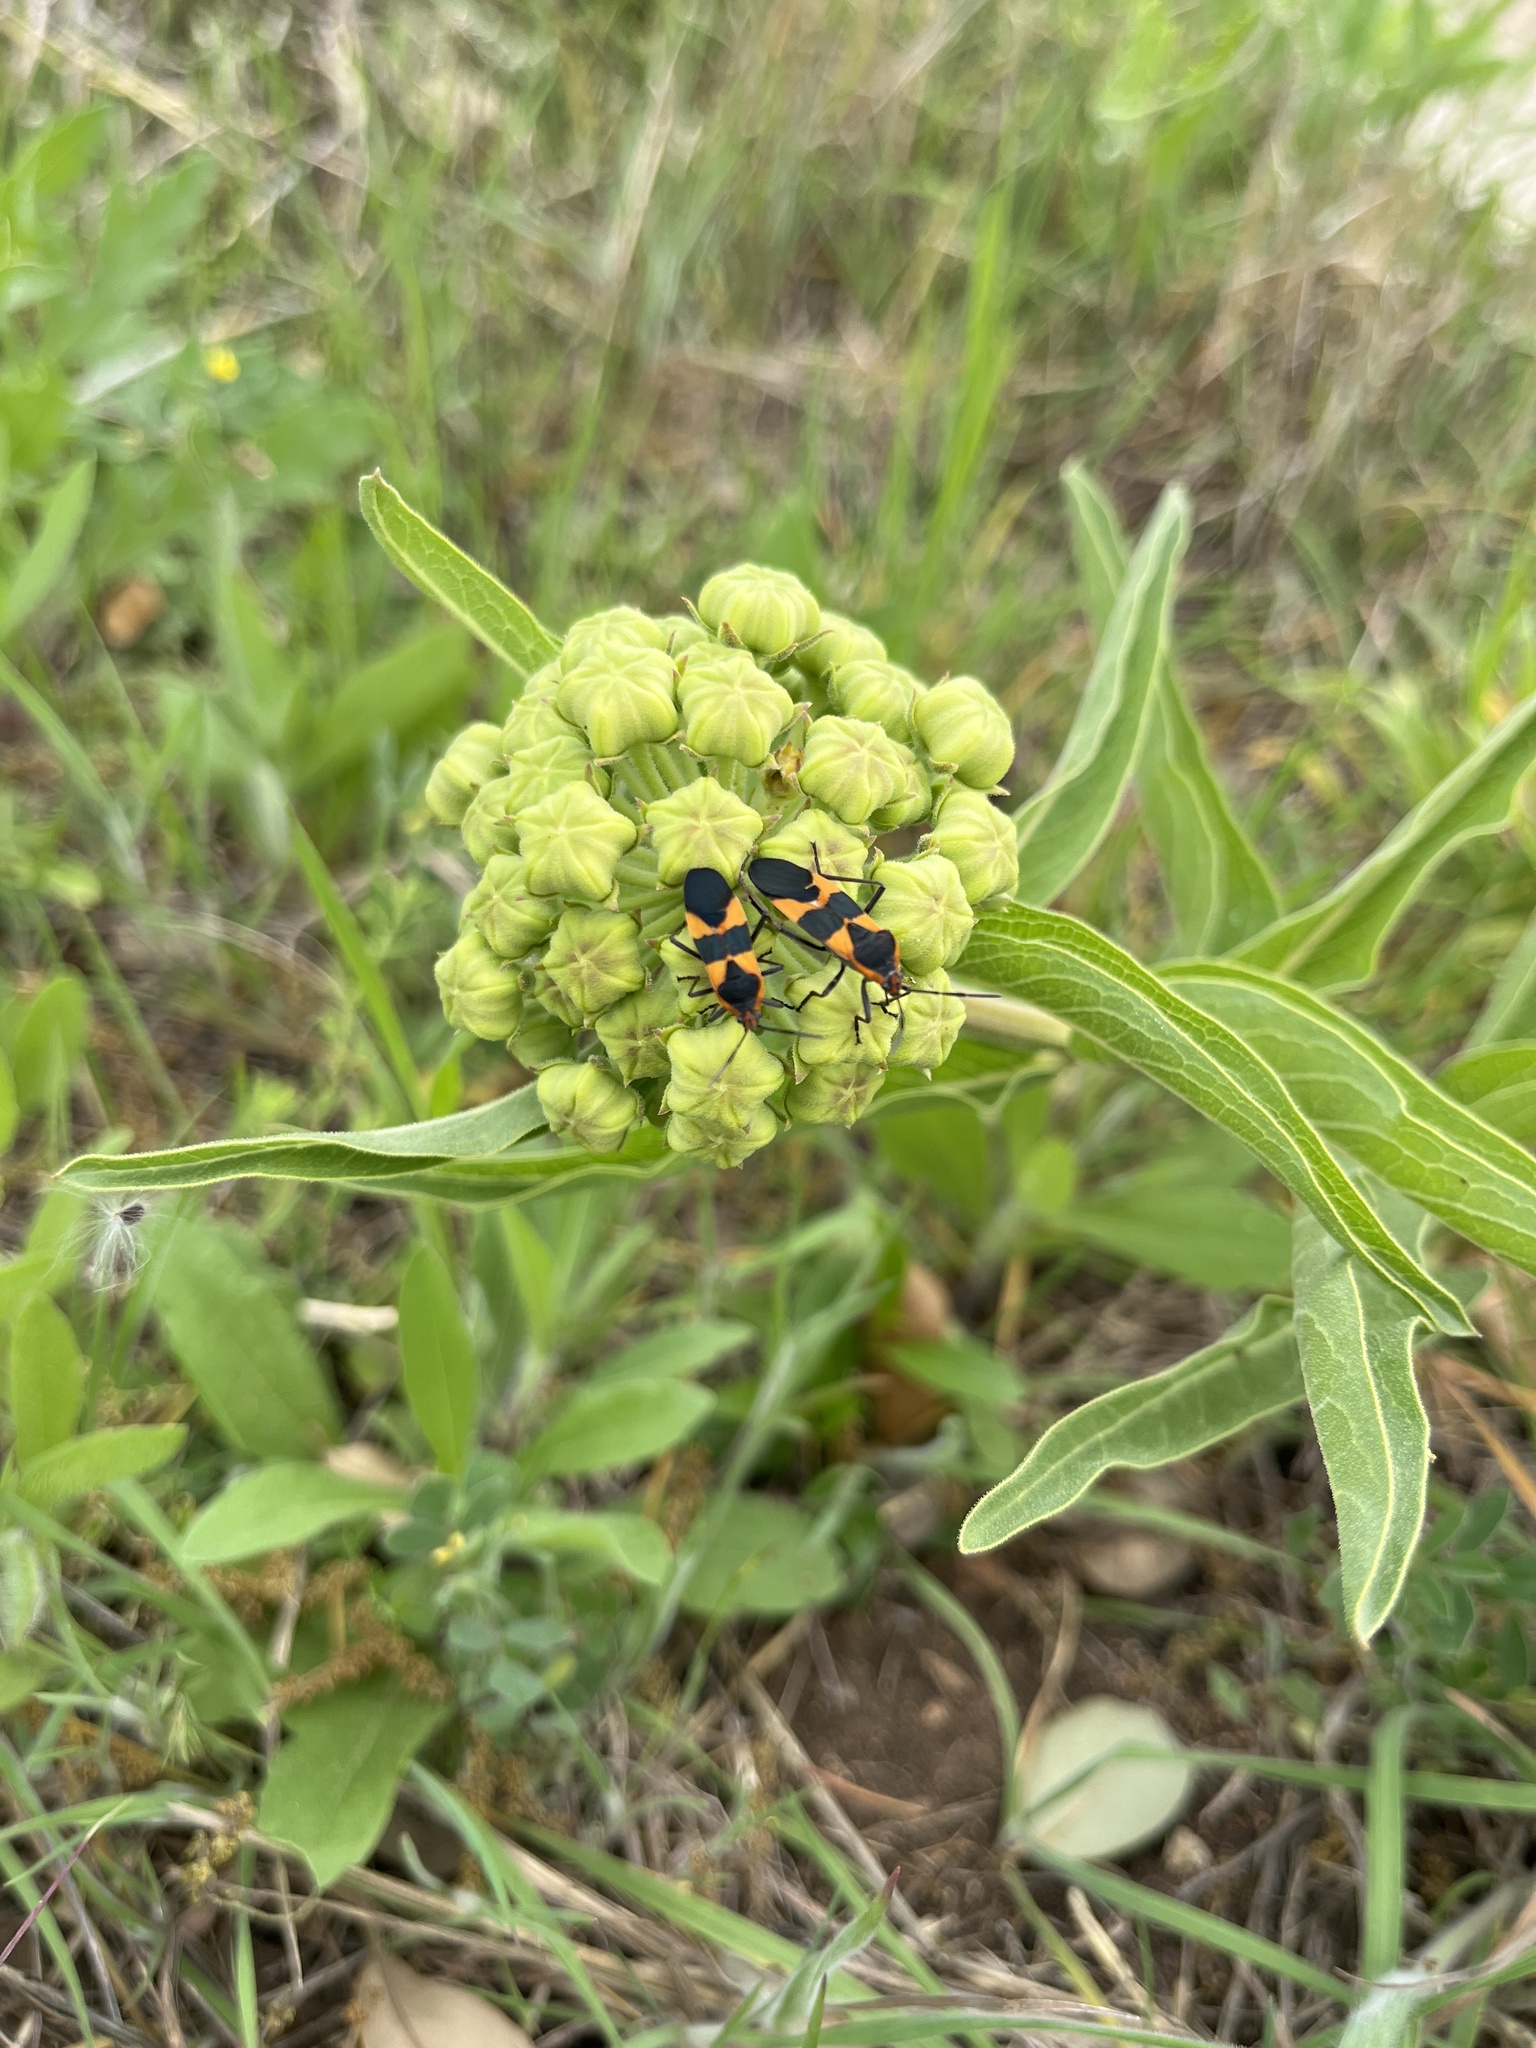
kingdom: Animalia
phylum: Arthropoda
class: Insecta
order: Hemiptera
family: Lygaeidae
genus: Oncopeltus
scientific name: Oncopeltus fasciatus
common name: Large milkweed bug
